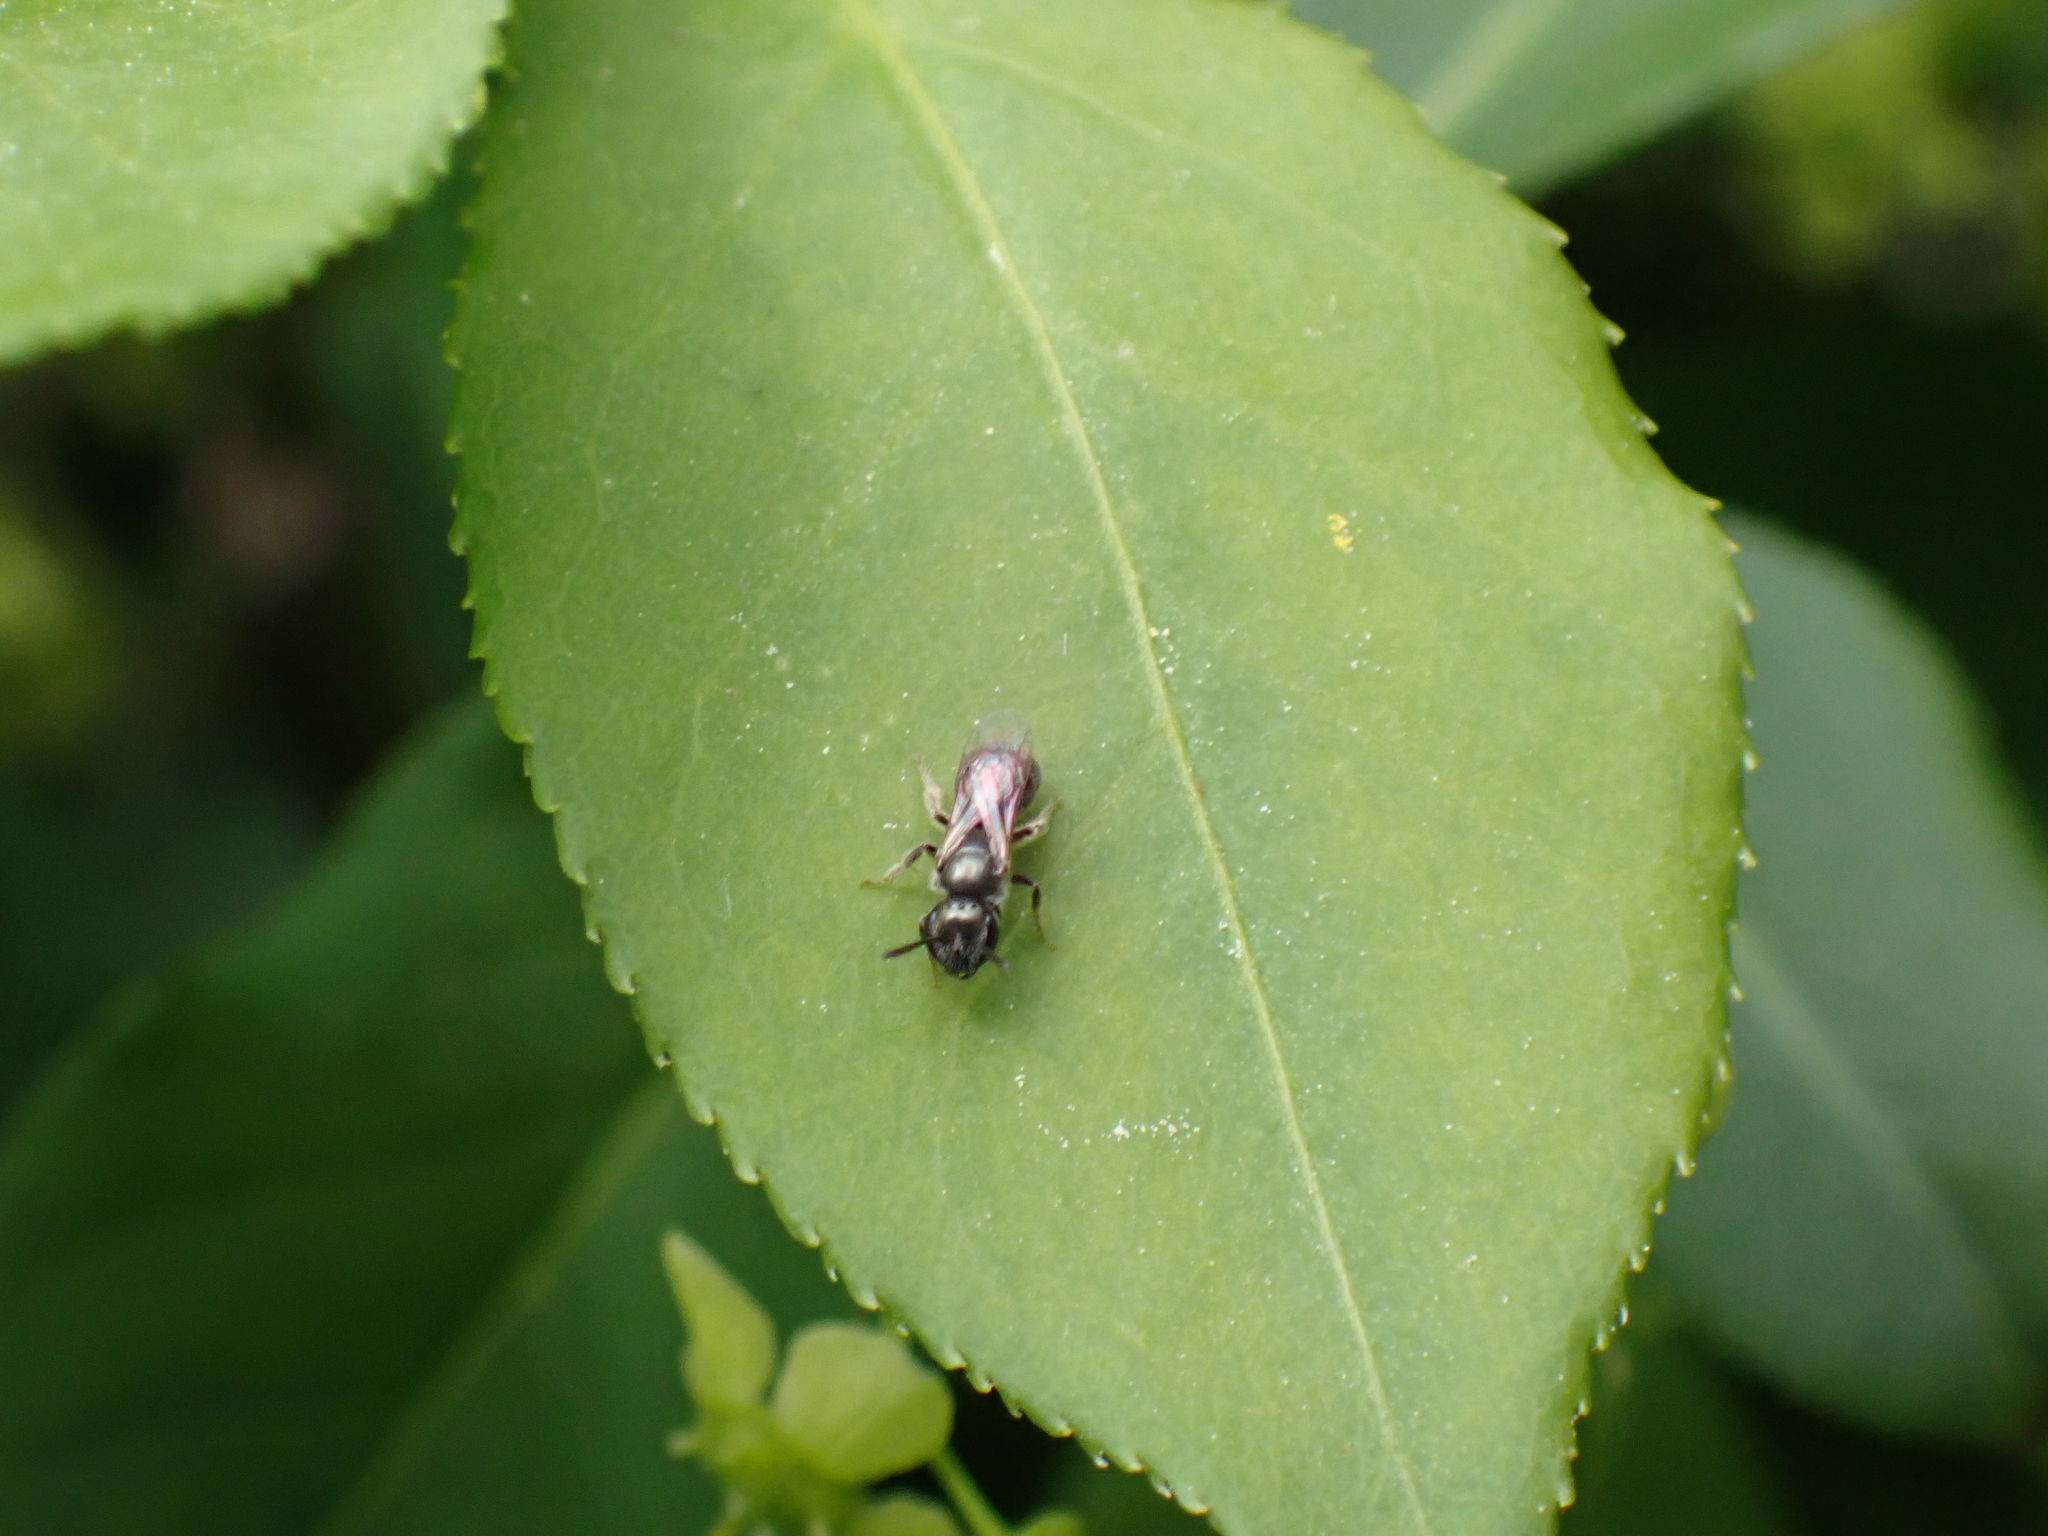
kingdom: Animalia
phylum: Arthropoda
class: Insecta
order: Hymenoptera
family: Halictidae
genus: Lasioglossum
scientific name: Lasioglossum imitatum
